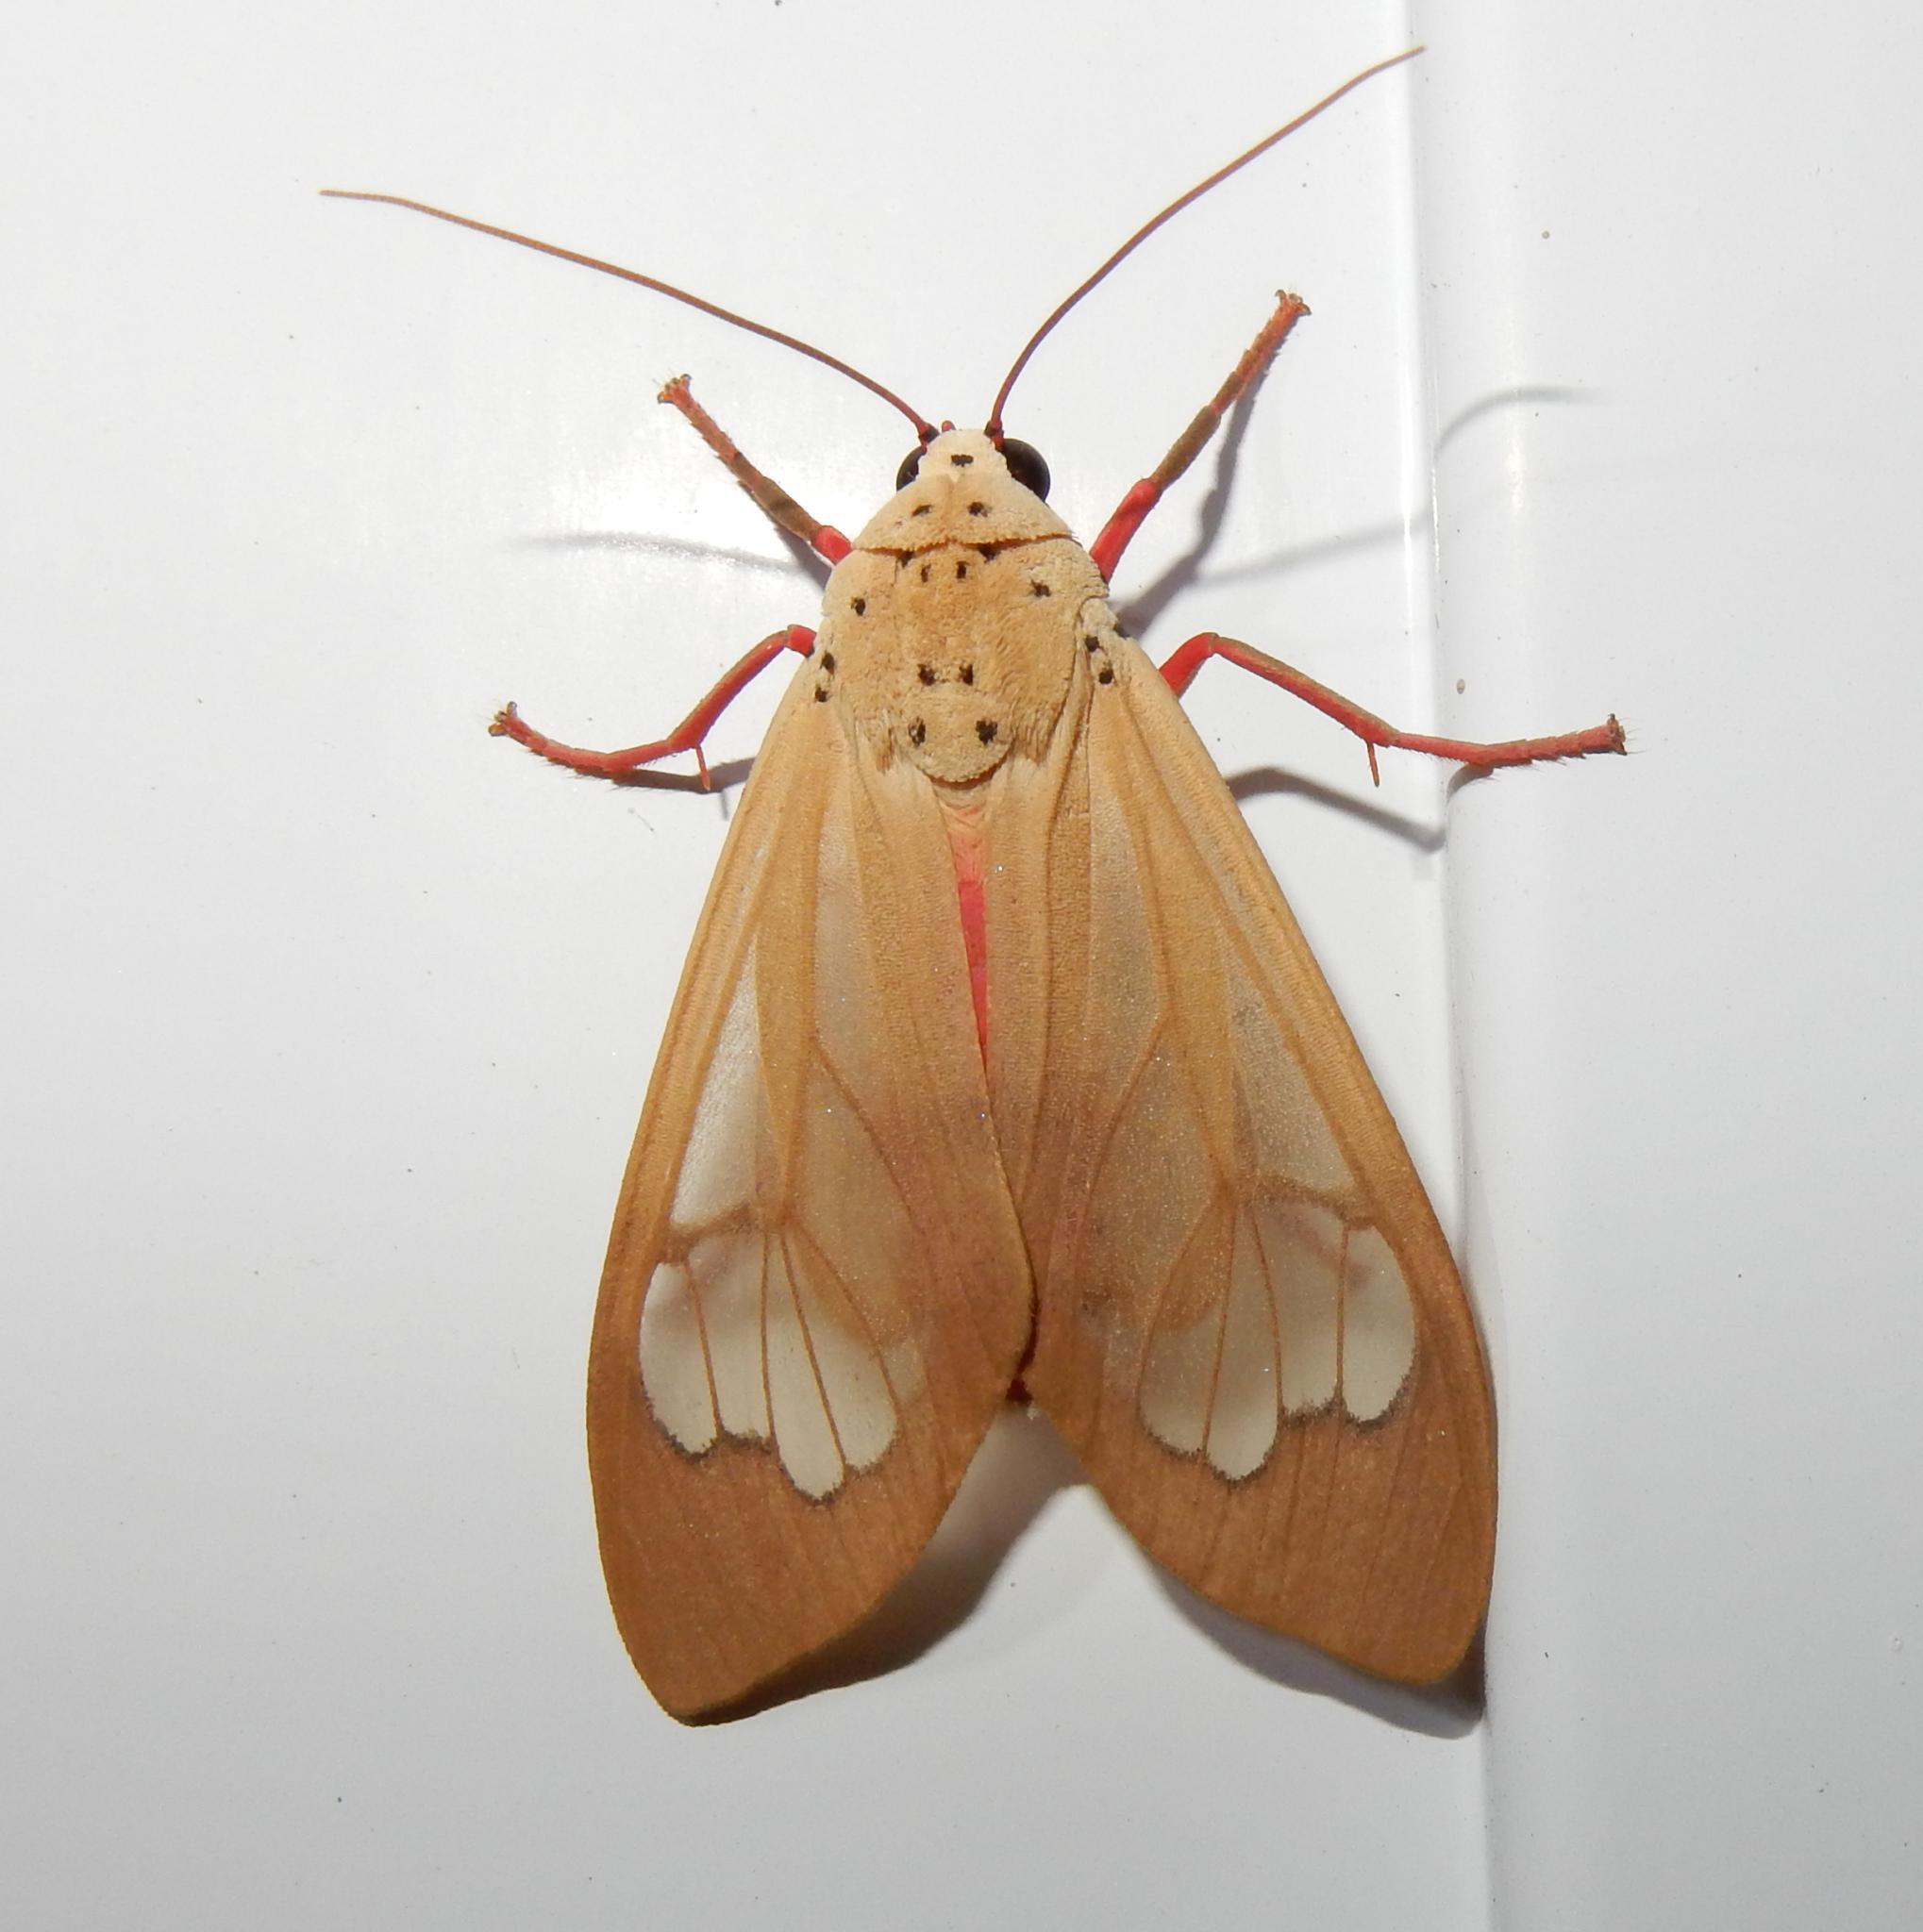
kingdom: Animalia
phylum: Arthropoda
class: Insecta
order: Lepidoptera
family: Erebidae
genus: Amerila
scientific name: Amerila vitrea
